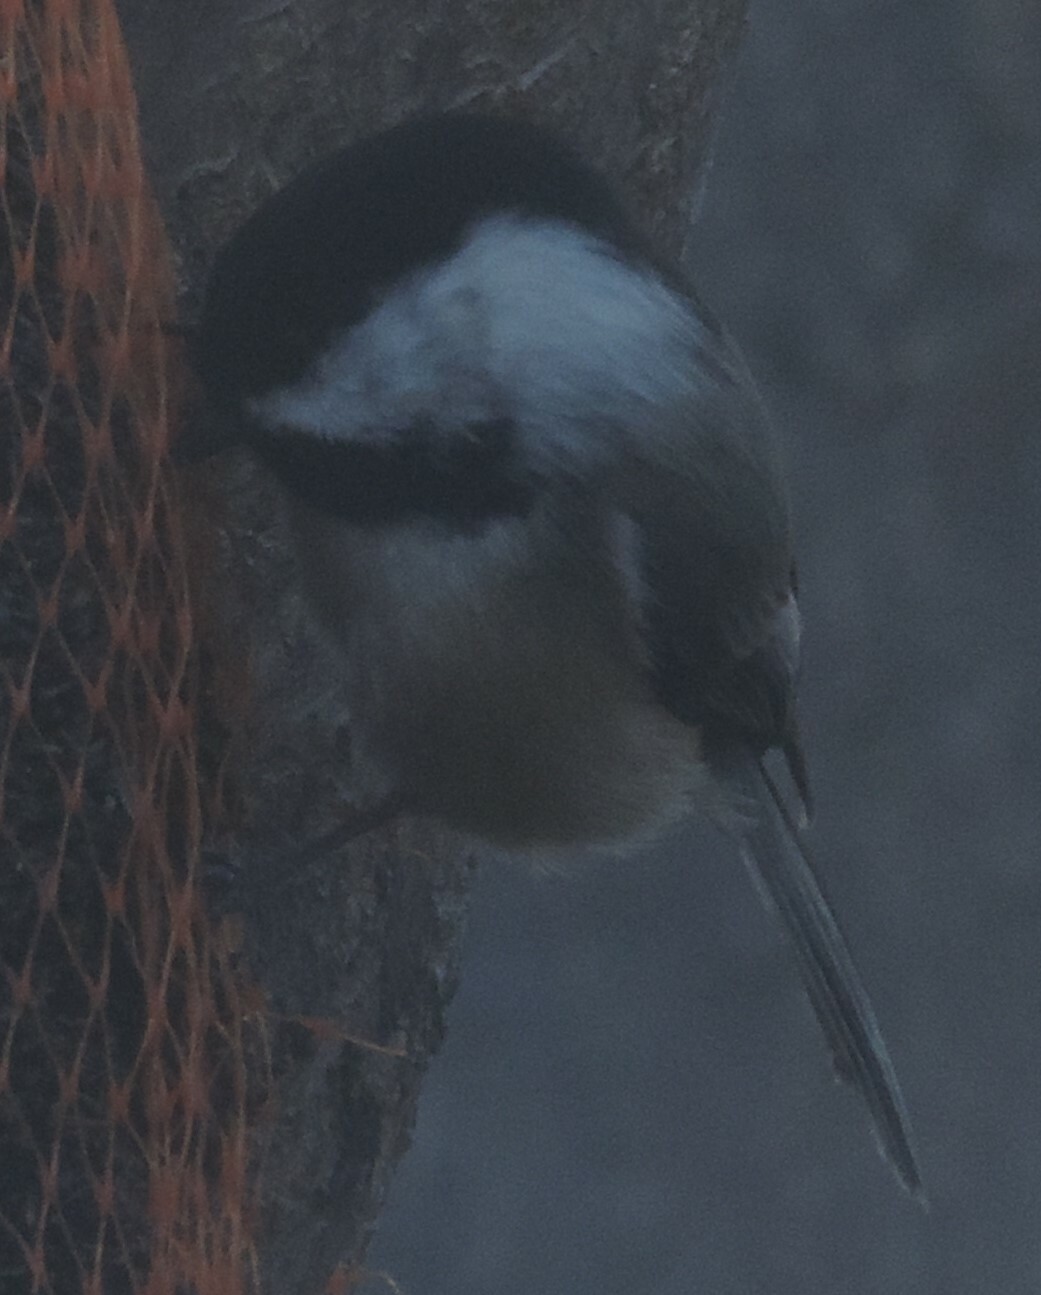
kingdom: Animalia
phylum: Chordata
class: Aves
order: Passeriformes
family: Paridae
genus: Poecile
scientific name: Poecile atricapillus
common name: Black-capped chickadee
